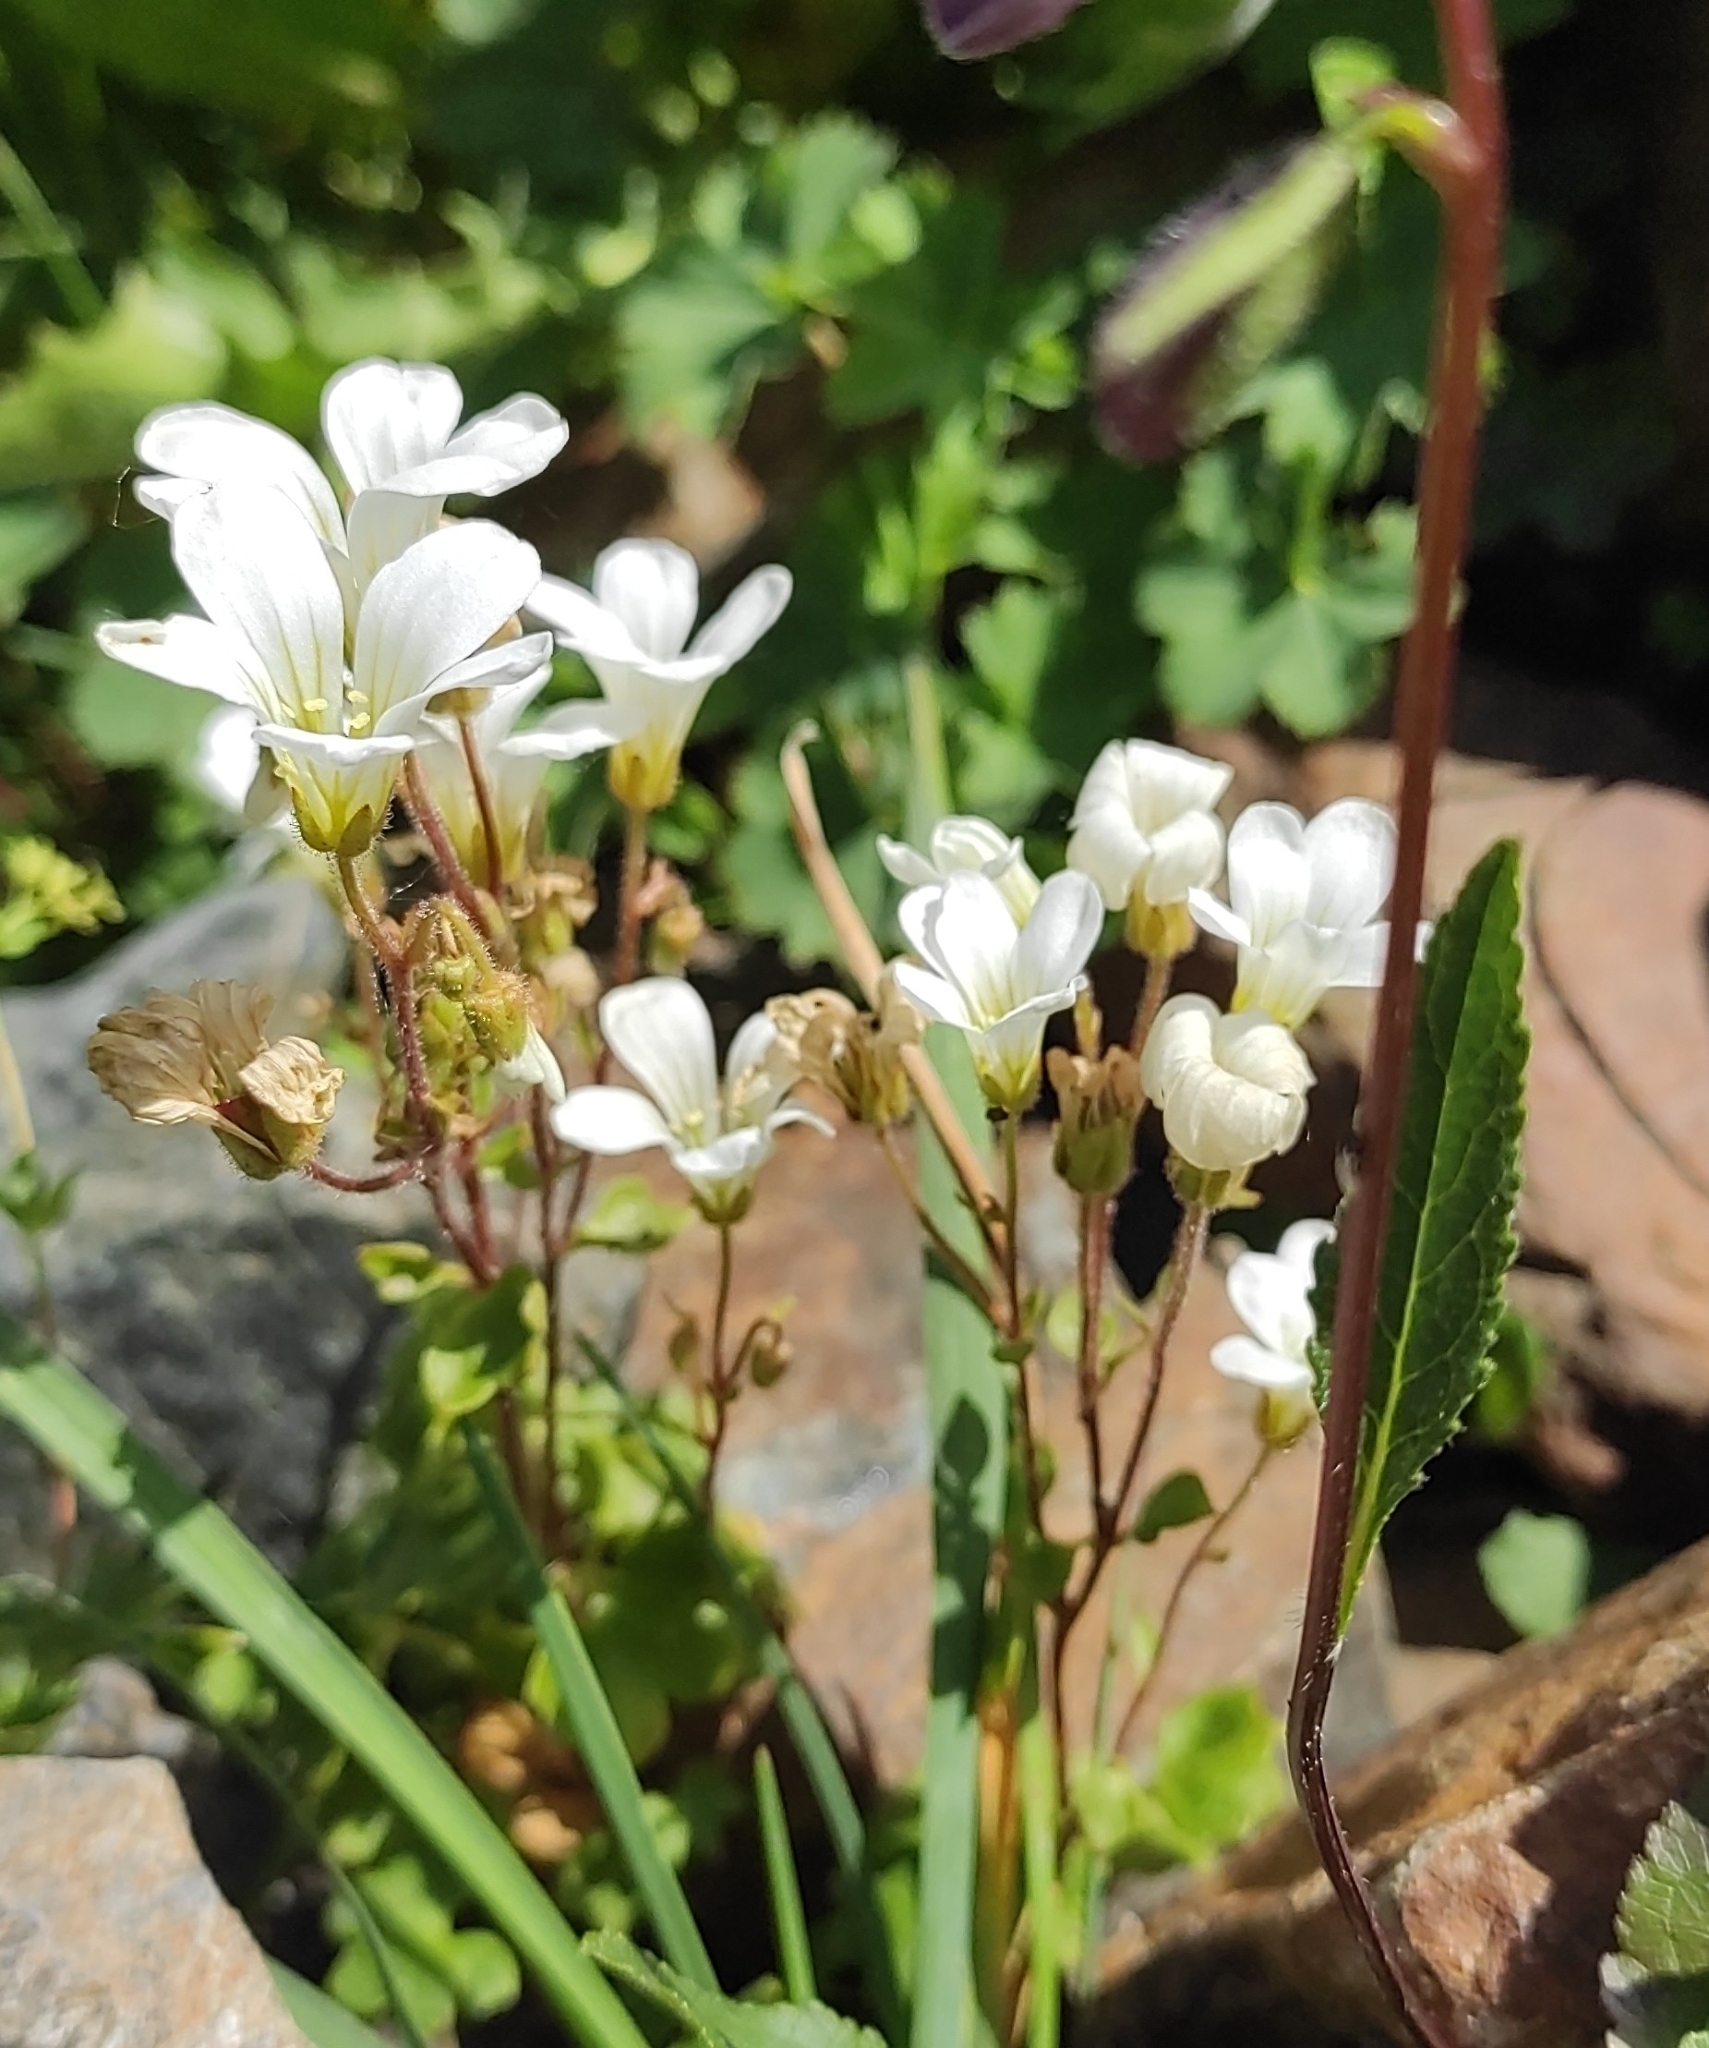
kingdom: Plantae
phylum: Tracheophyta
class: Magnoliopsida
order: Saxifragales
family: Saxifragaceae
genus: Saxifraga
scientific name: Saxifraga sibirica
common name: Siberian saxifrage
